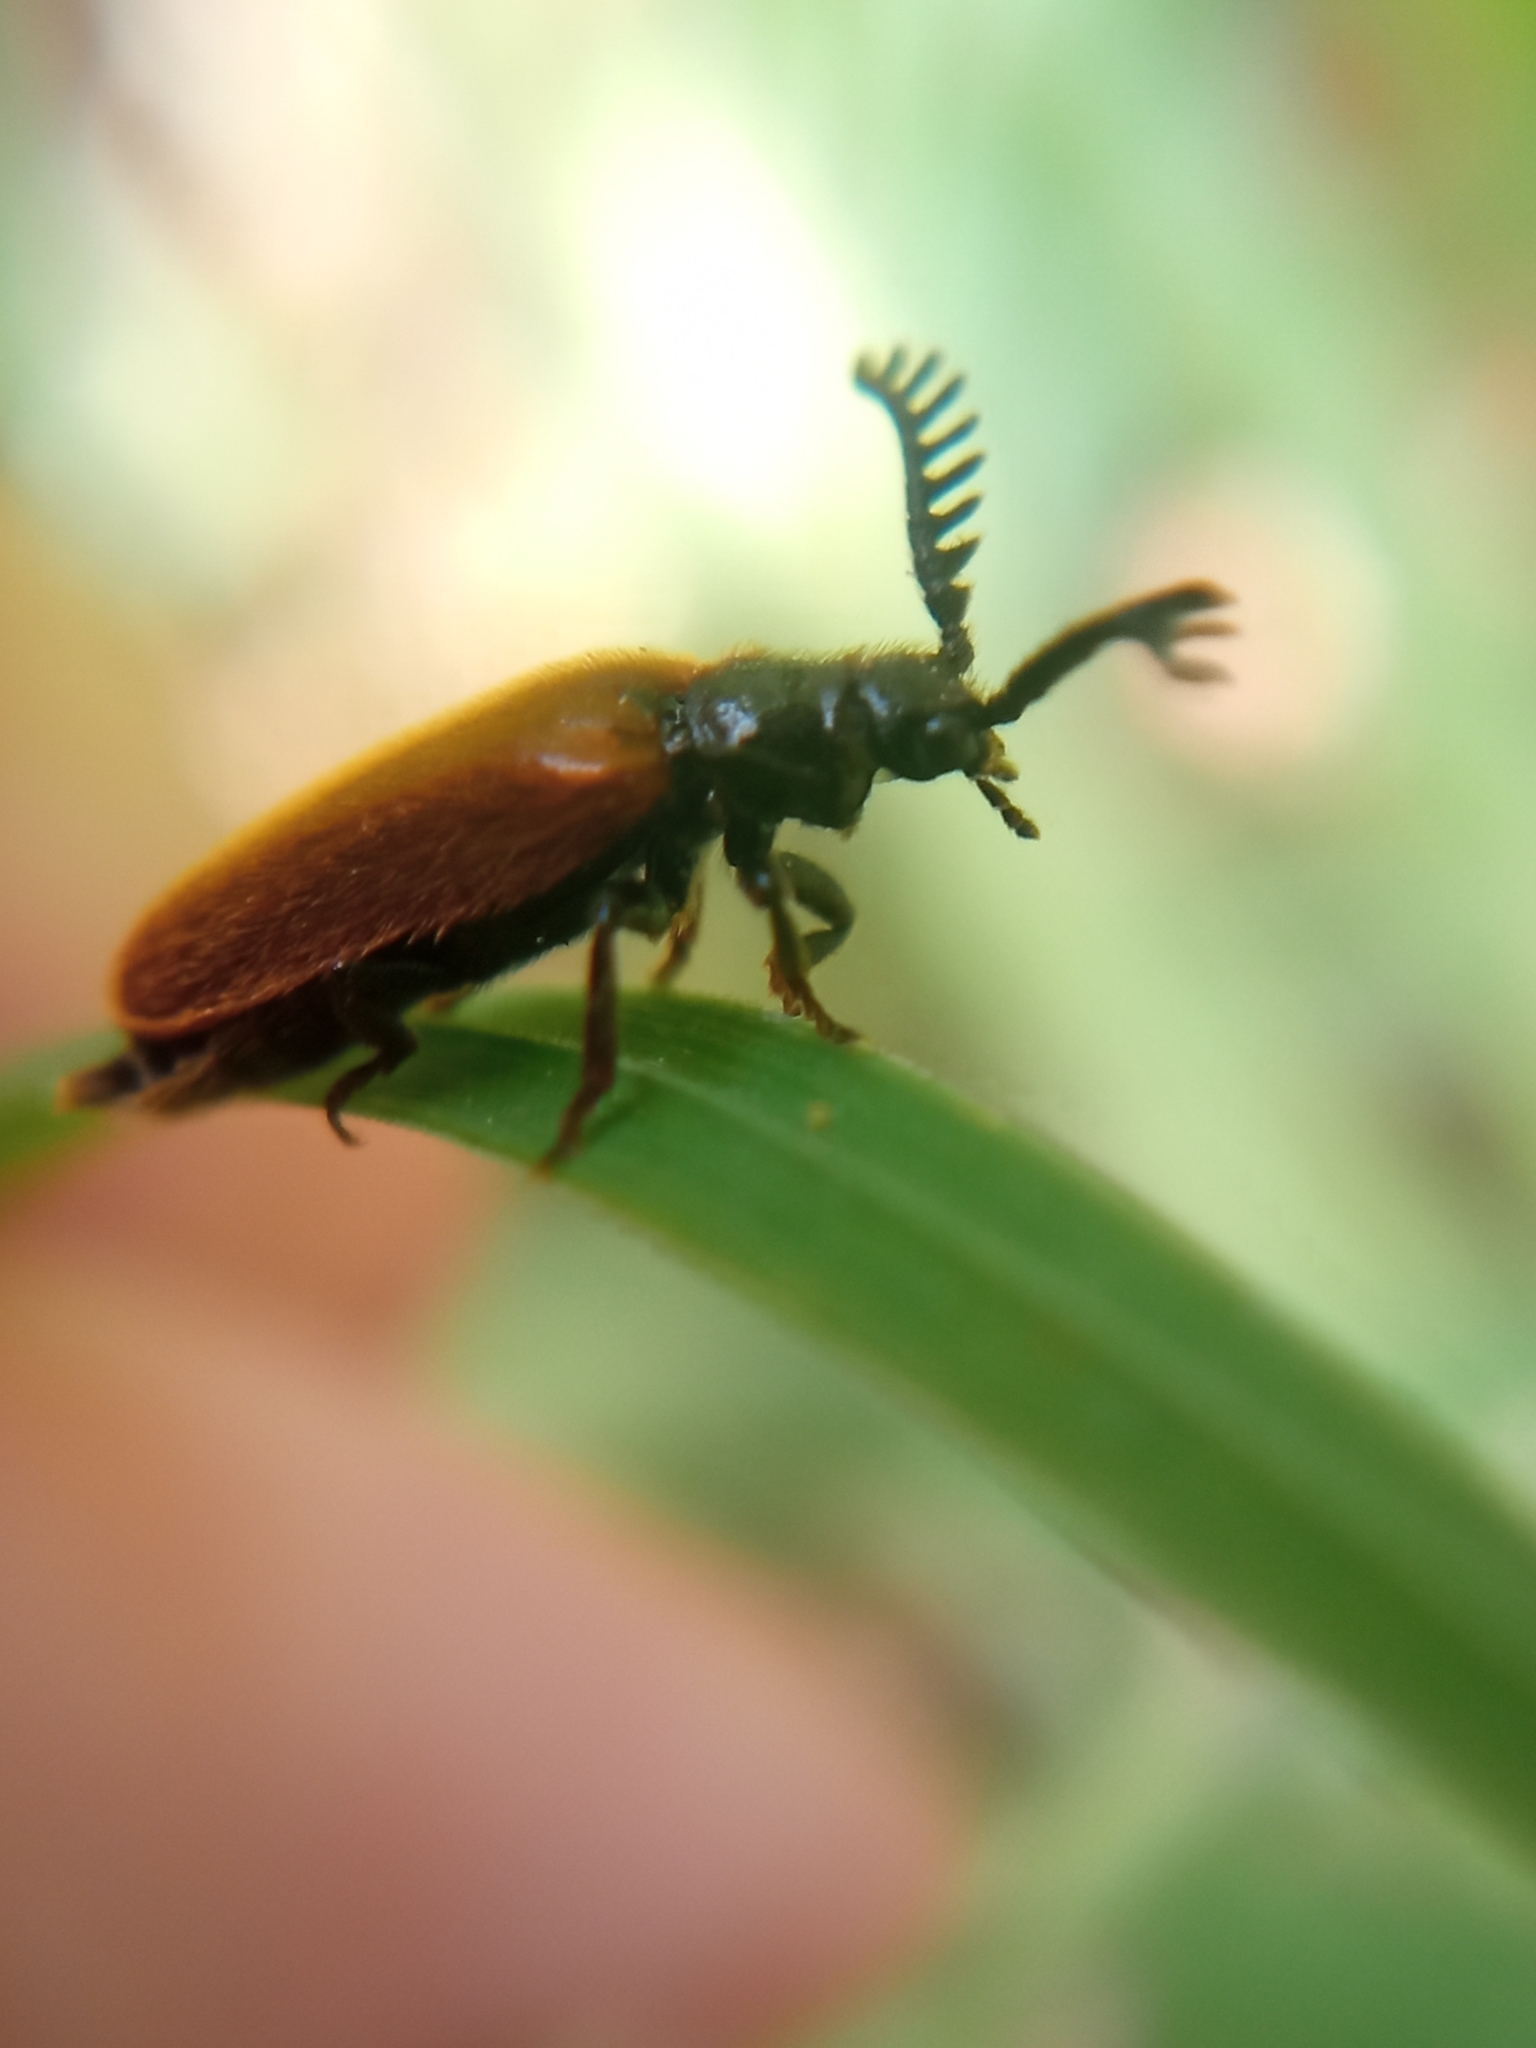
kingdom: Animalia
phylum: Arthropoda
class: Insecta
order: Coleoptera
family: Drilidae
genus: Drilus
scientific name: Drilus flavescens
